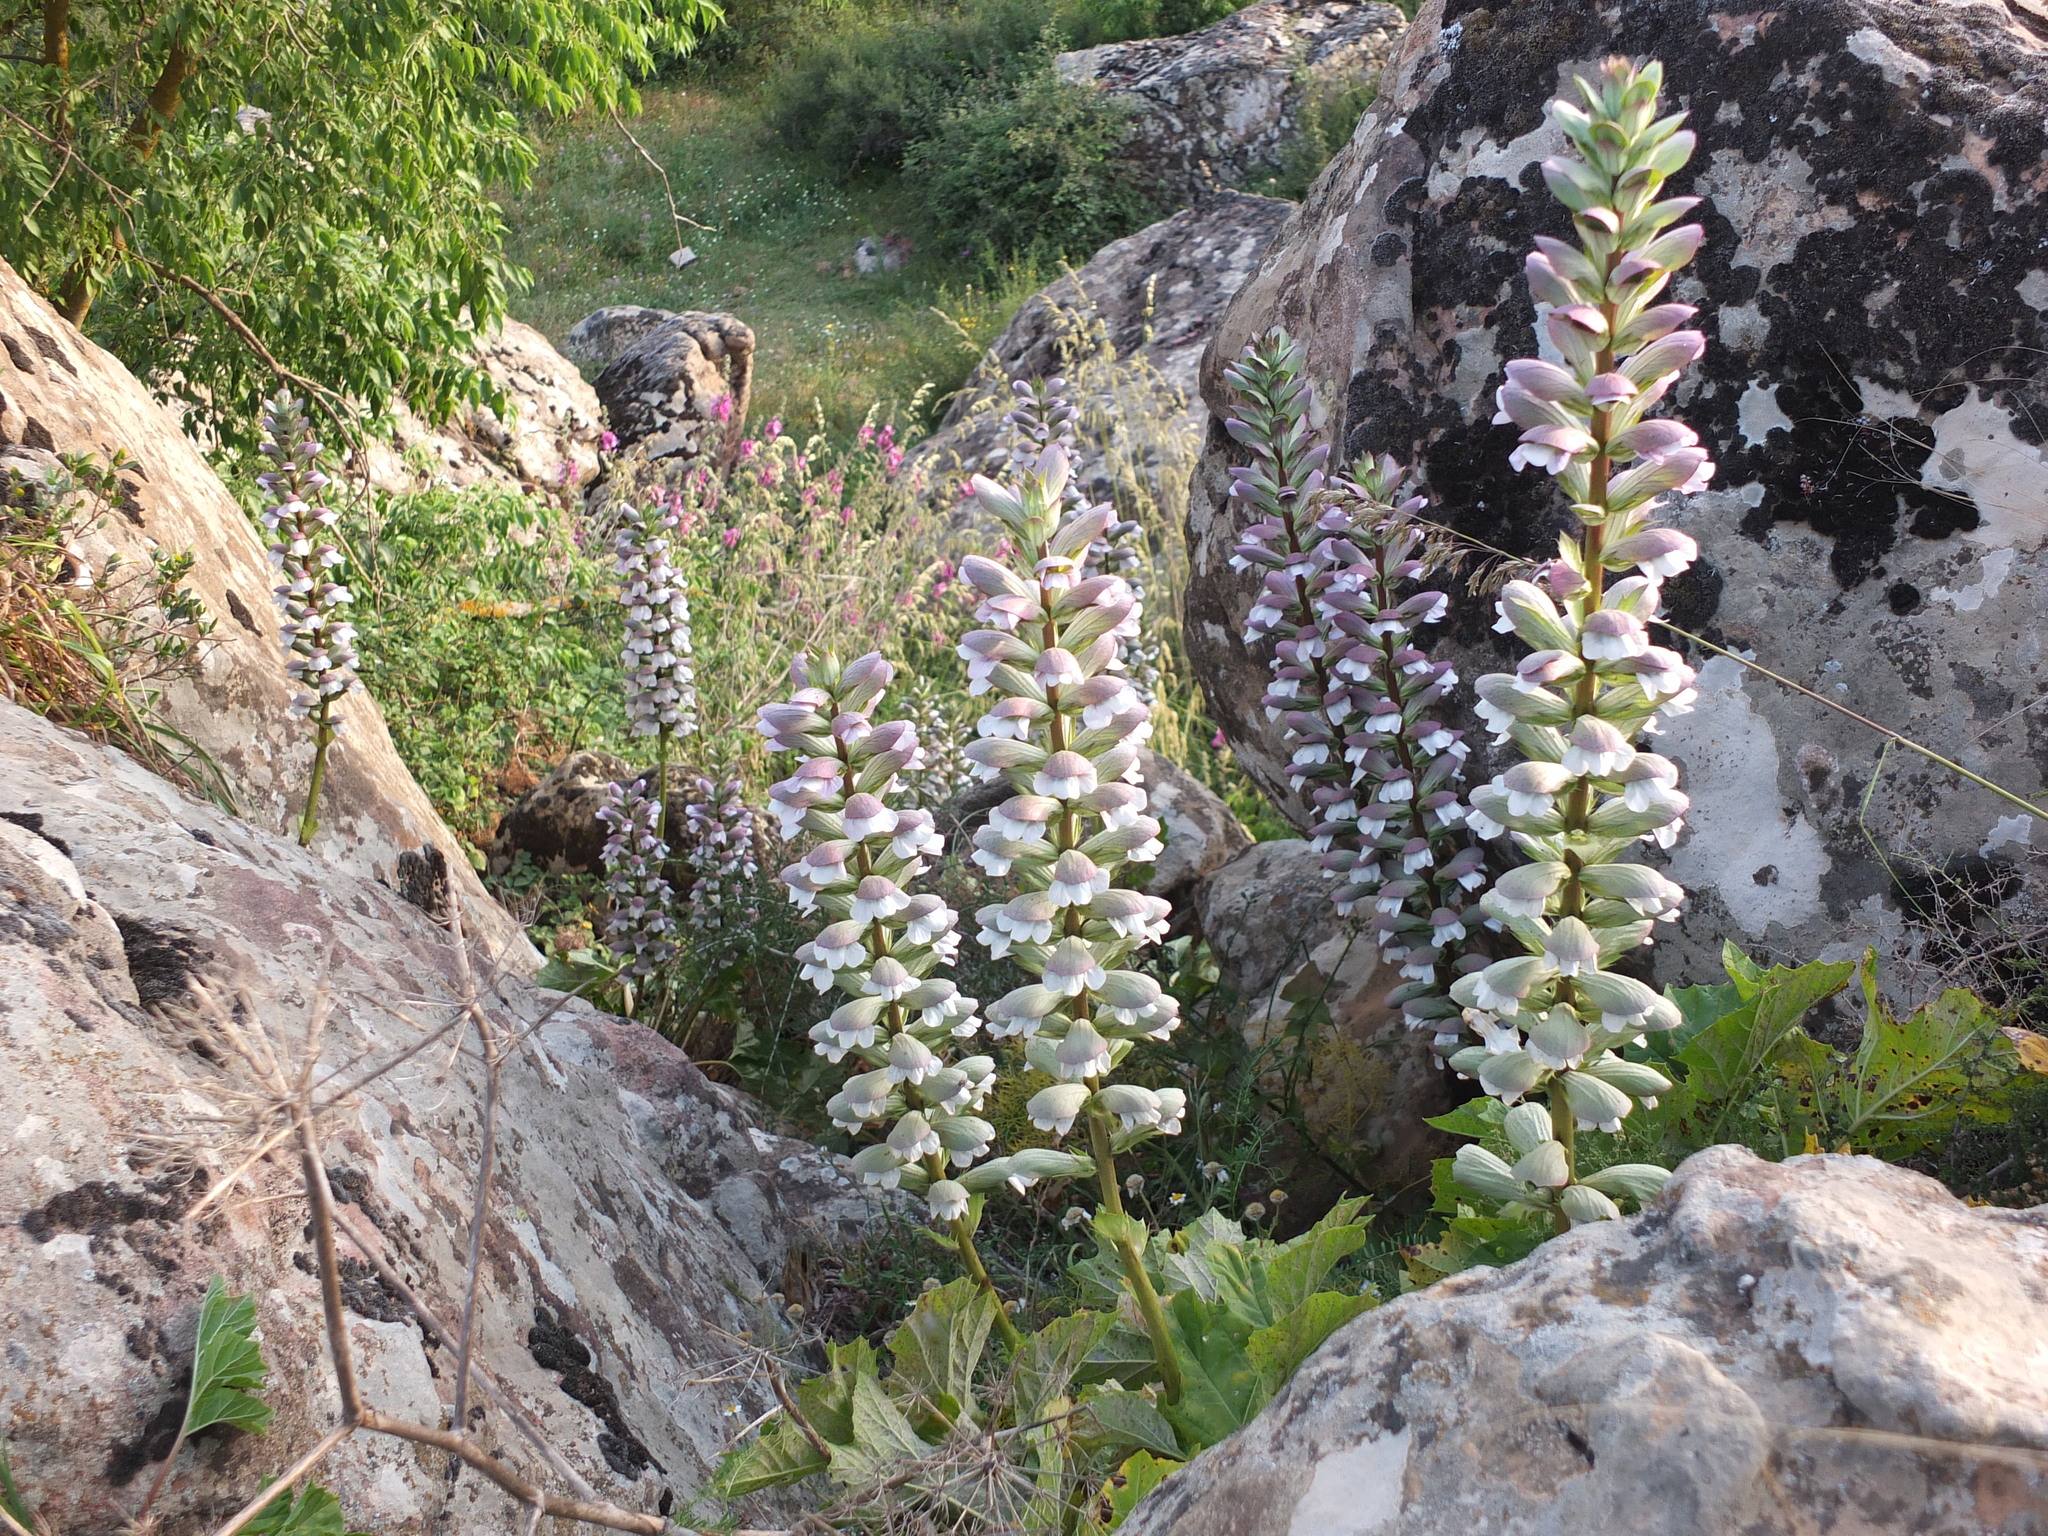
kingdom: Plantae
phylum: Tracheophyta
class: Magnoliopsida
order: Lamiales
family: Acanthaceae
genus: Acanthus
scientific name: Acanthus mollis
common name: Bear's-breech
